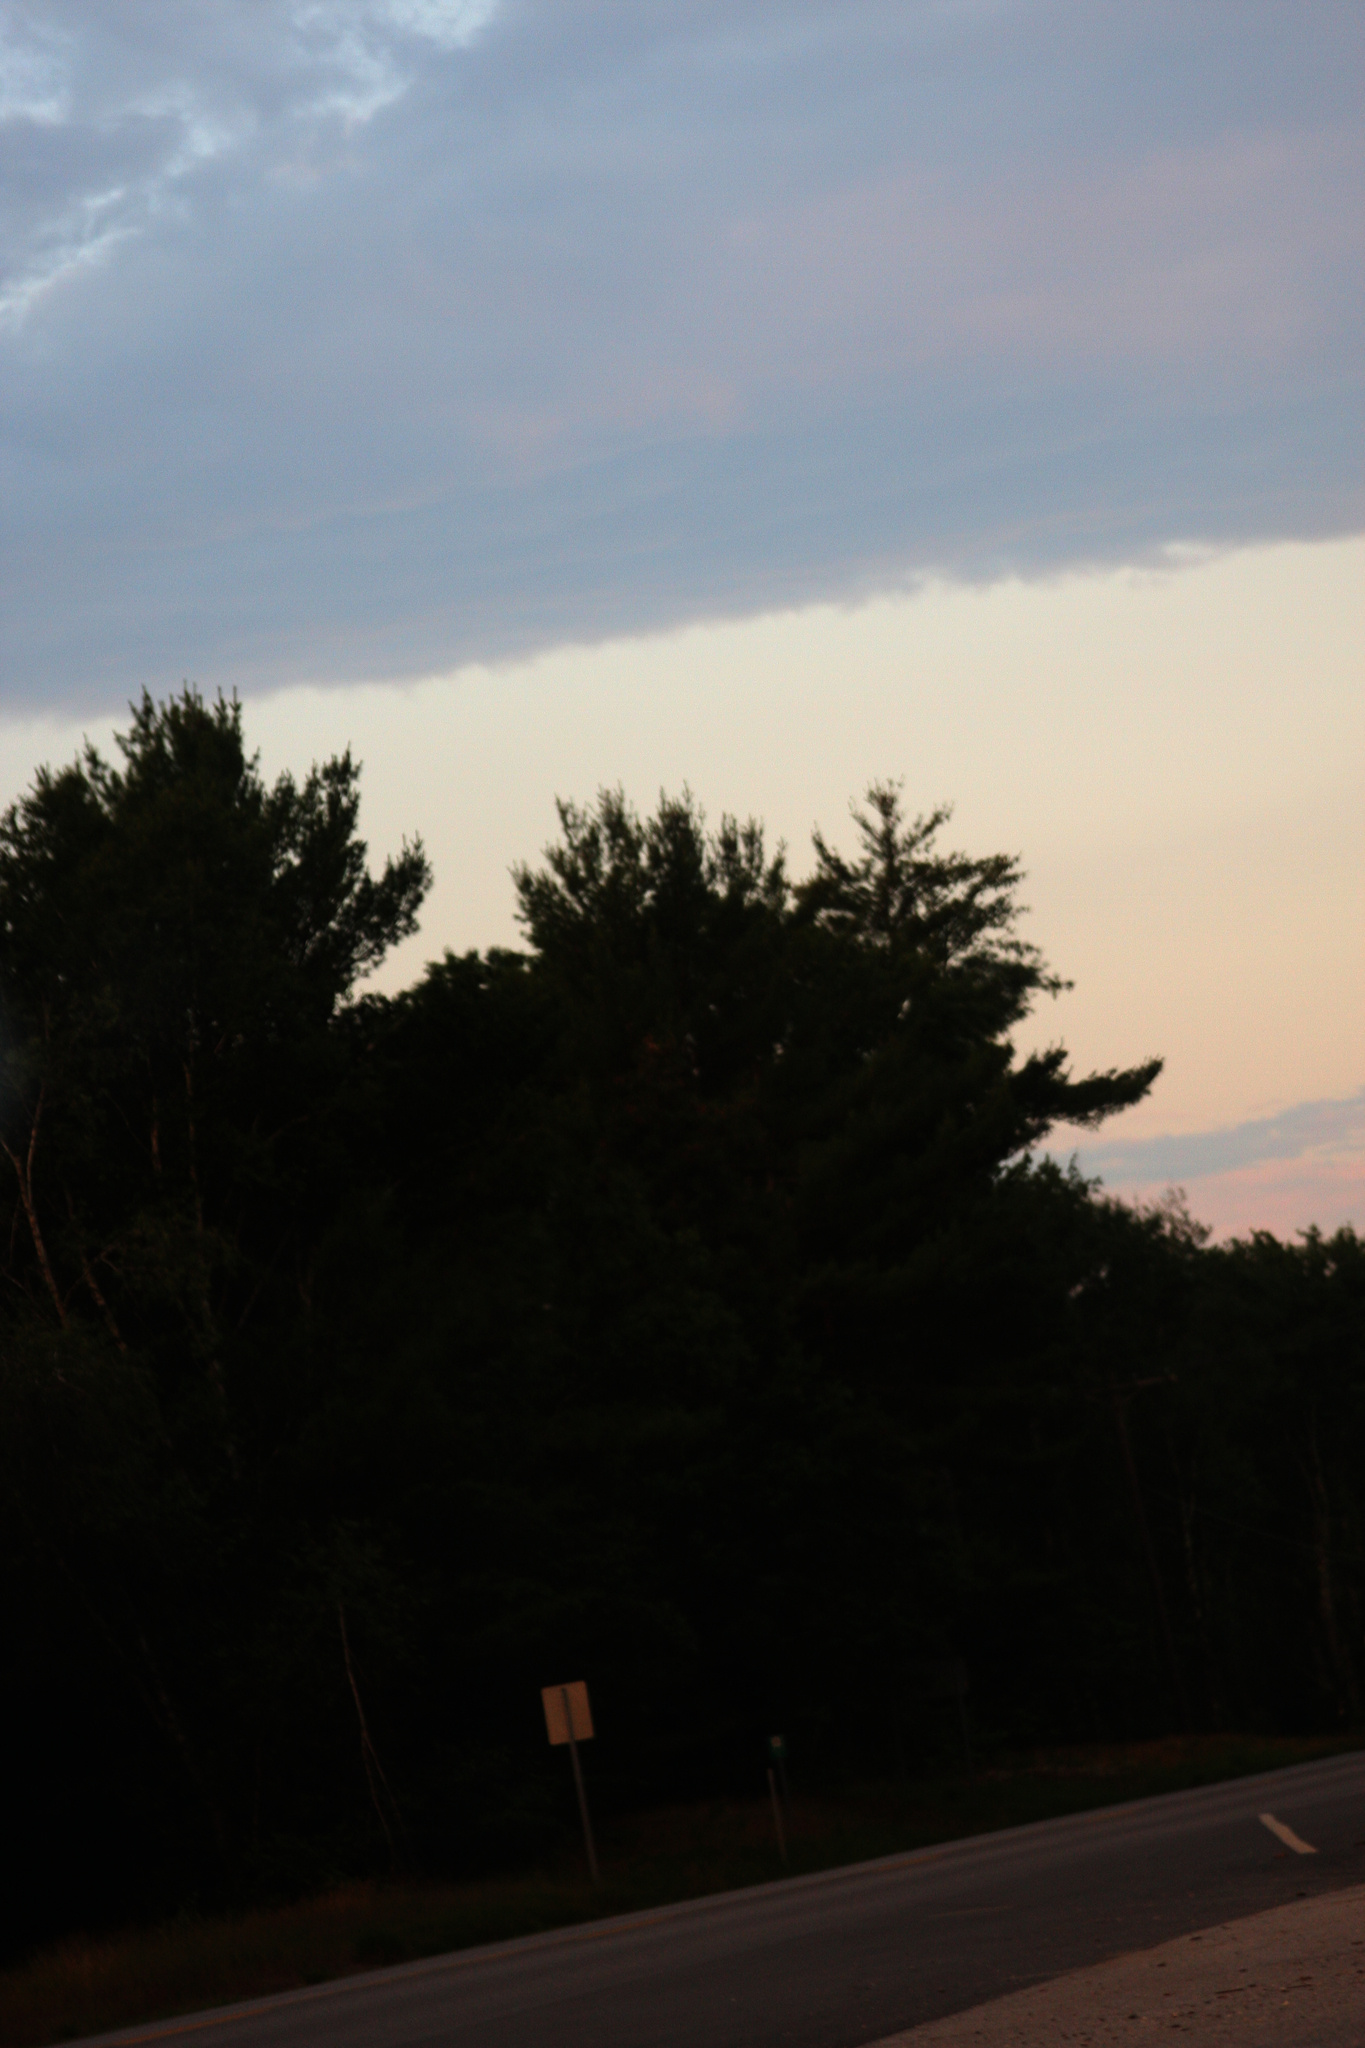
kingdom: Plantae
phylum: Tracheophyta
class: Pinopsida
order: Pinales
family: Pinaceae
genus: Pinus
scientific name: Pinus strobus
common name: Weymouth pine
